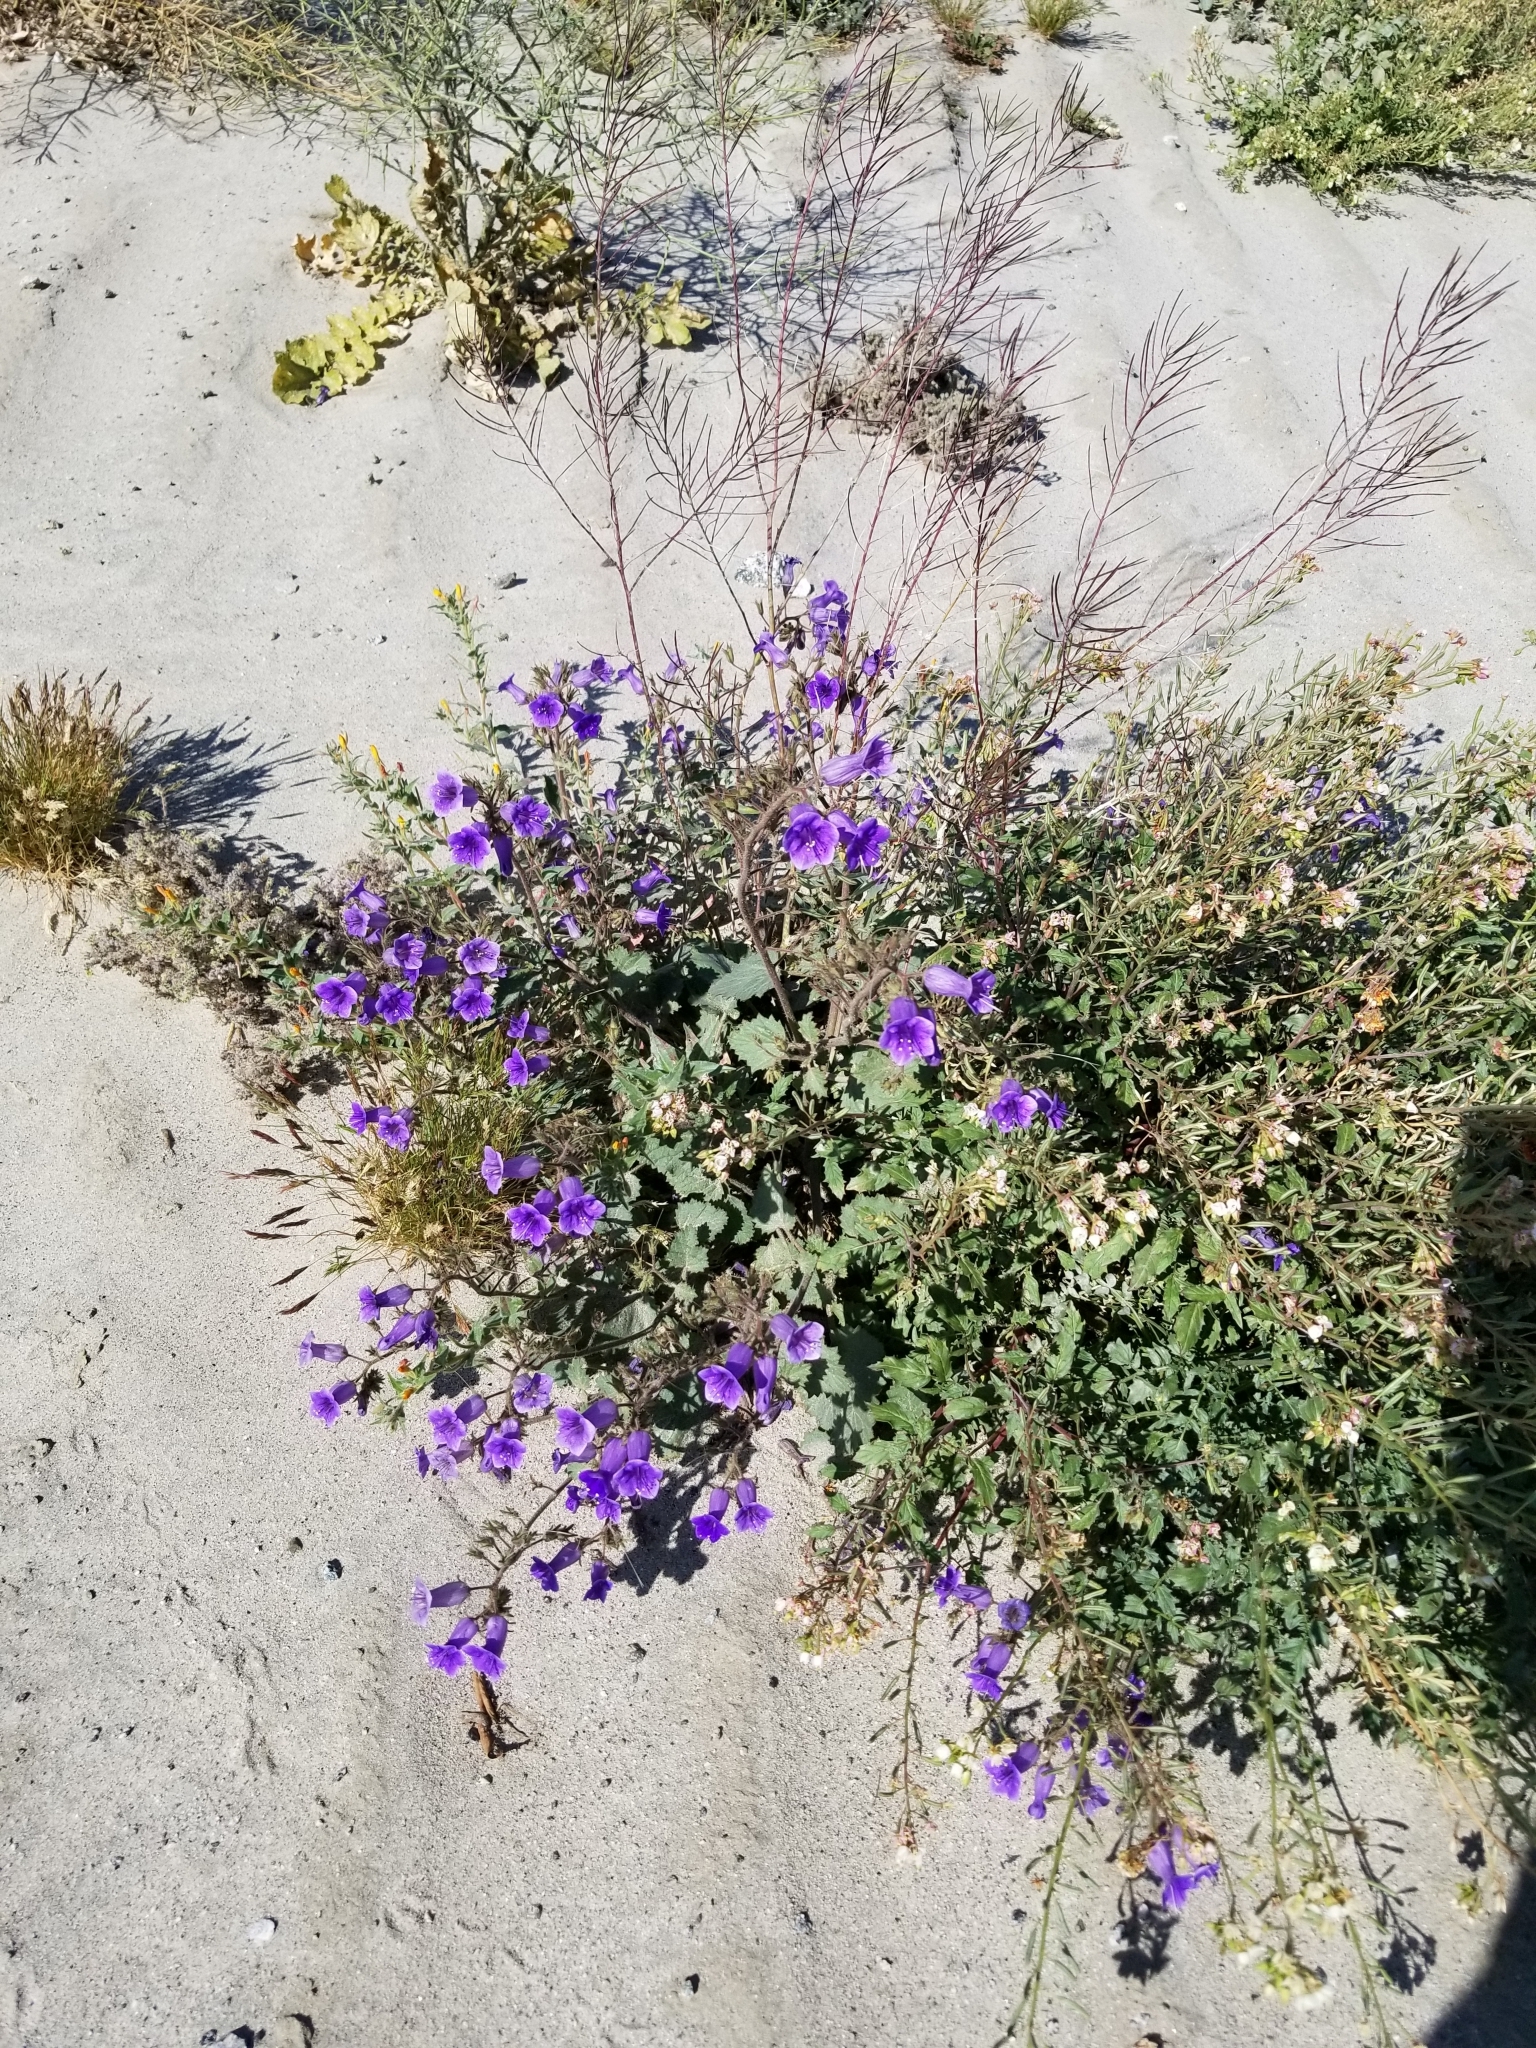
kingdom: Plantae
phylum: Tracheophyta
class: Magnoliopsida
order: Boraginales
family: Hydrophyllaceae
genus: Phacelia
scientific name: Phacelia minor
